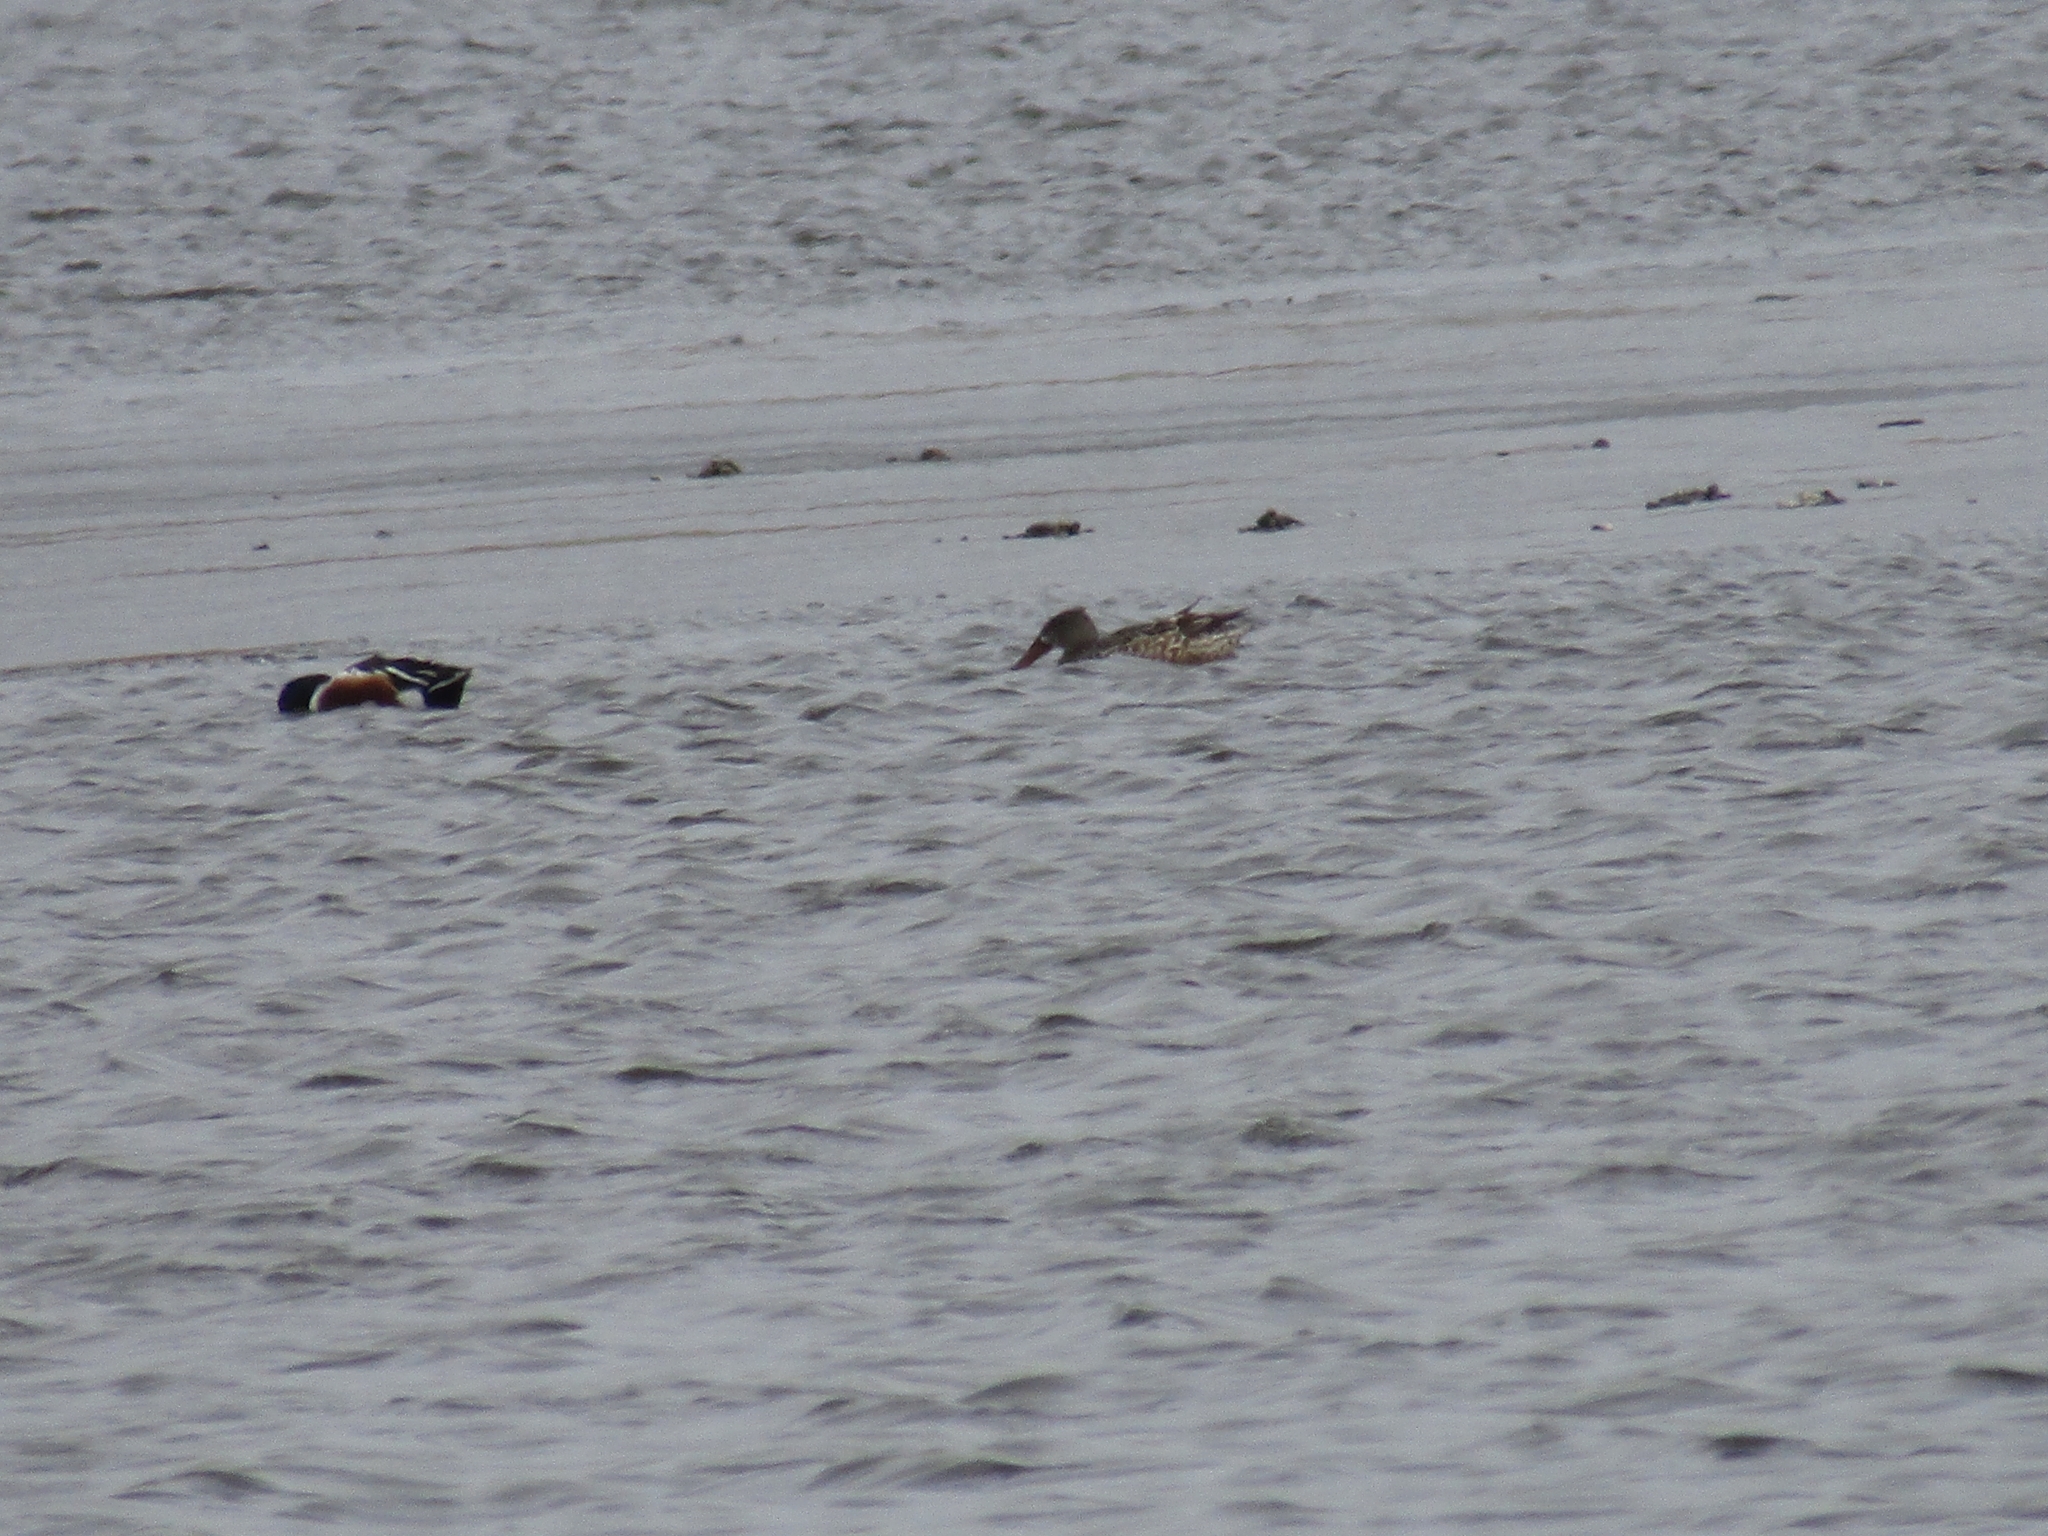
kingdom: Animalia
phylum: Chordata
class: Aves
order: Anseriformes
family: Anatidae
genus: Spatula
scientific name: Spatula clypeata
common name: Northern shoveler
